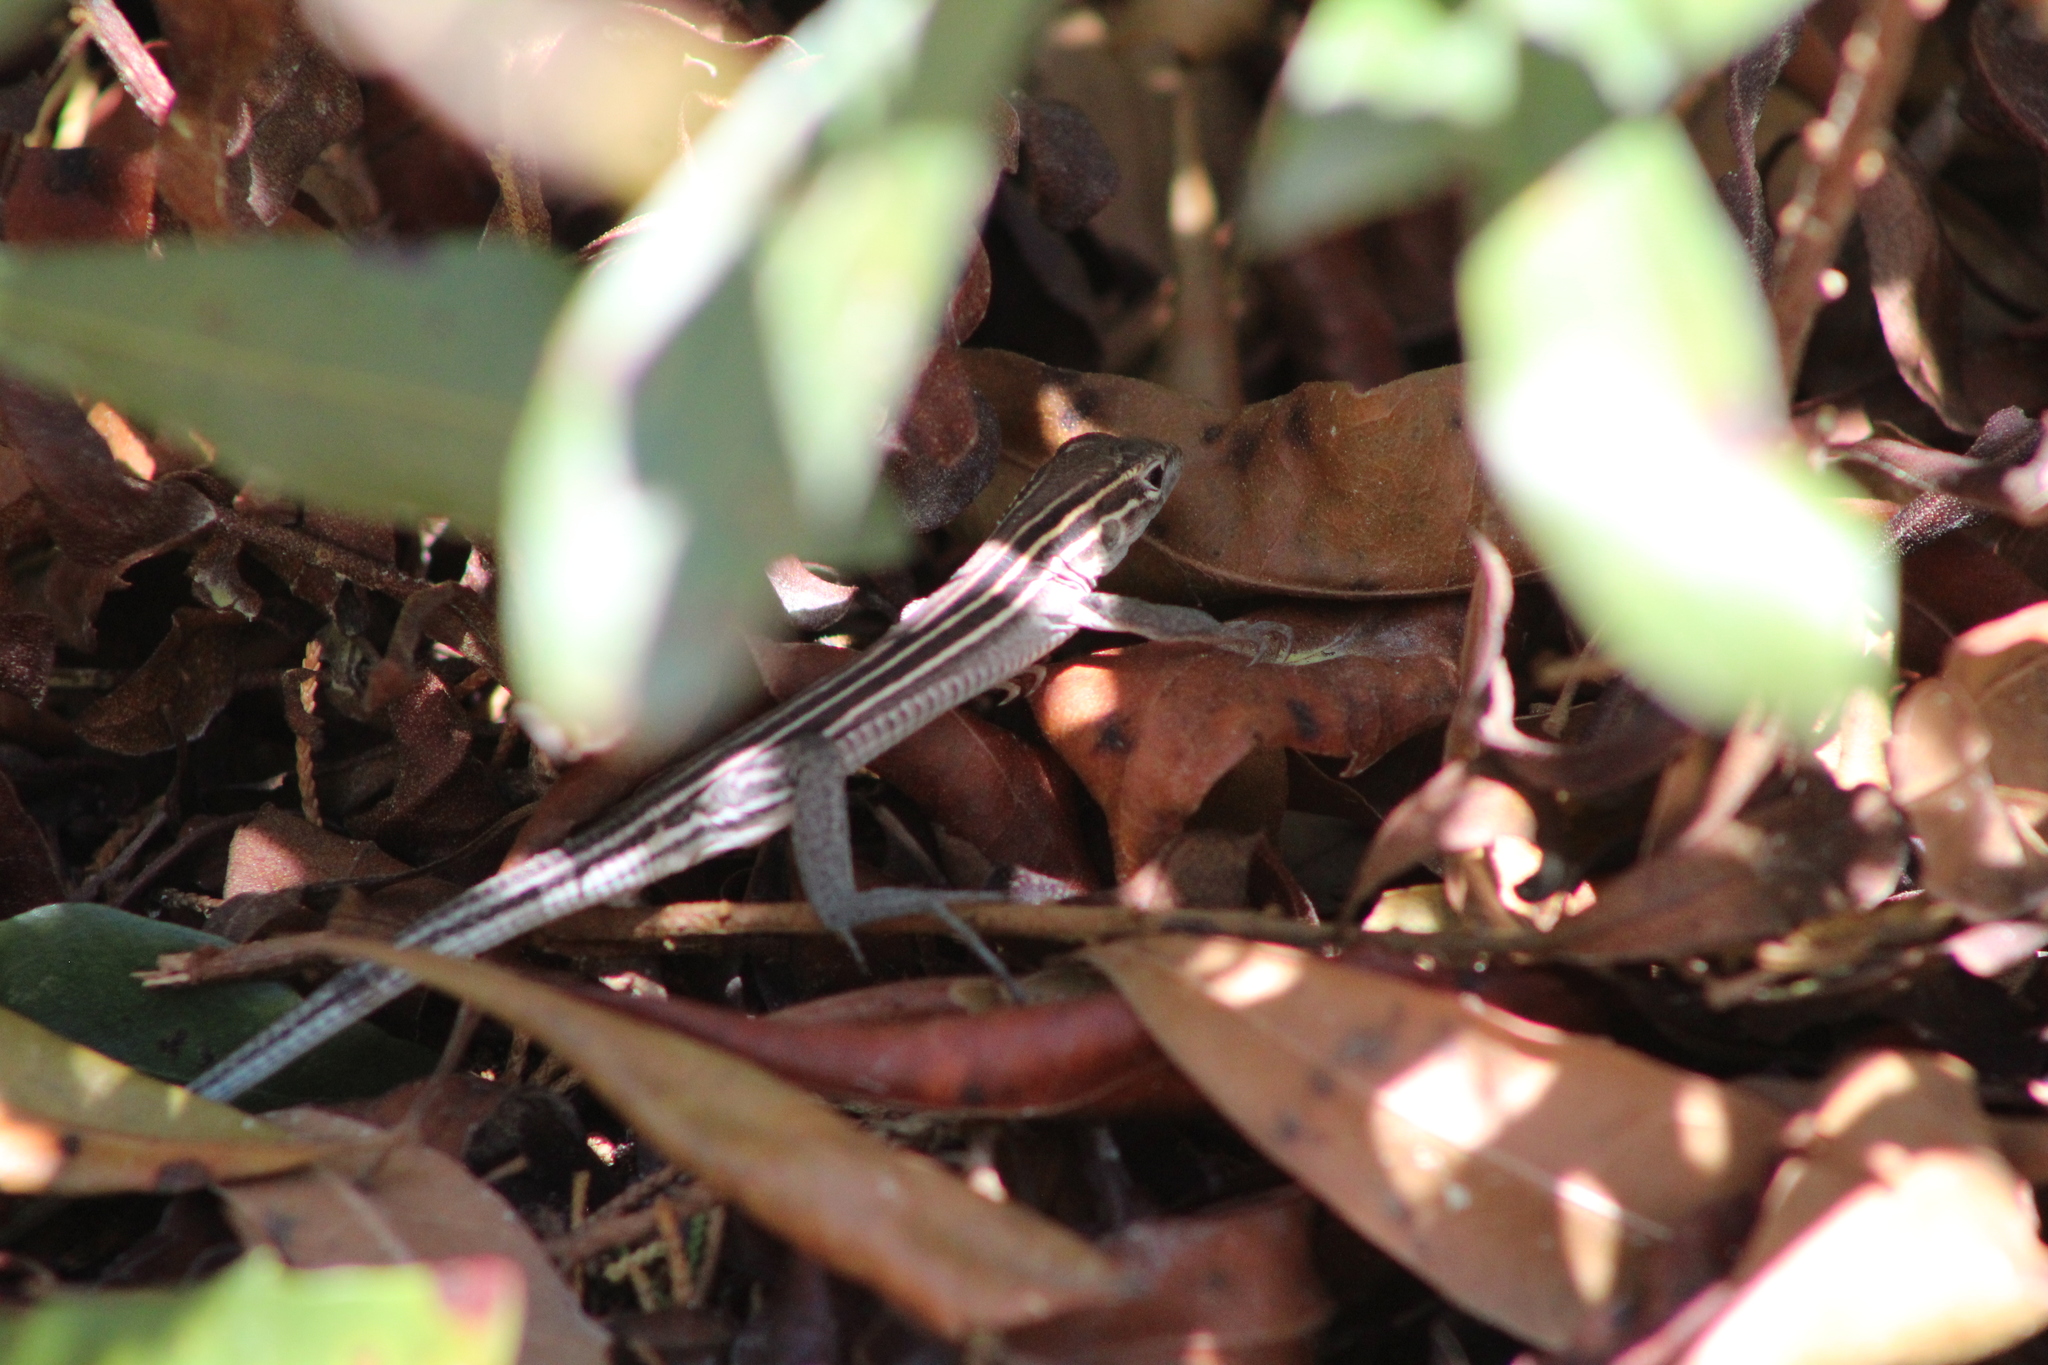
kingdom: Animalia
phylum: Chordata
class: Squamata
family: Teiidae
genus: Aspidoscelis
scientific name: Aspidoscelis sexlineatus
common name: Six-lined racerunner
